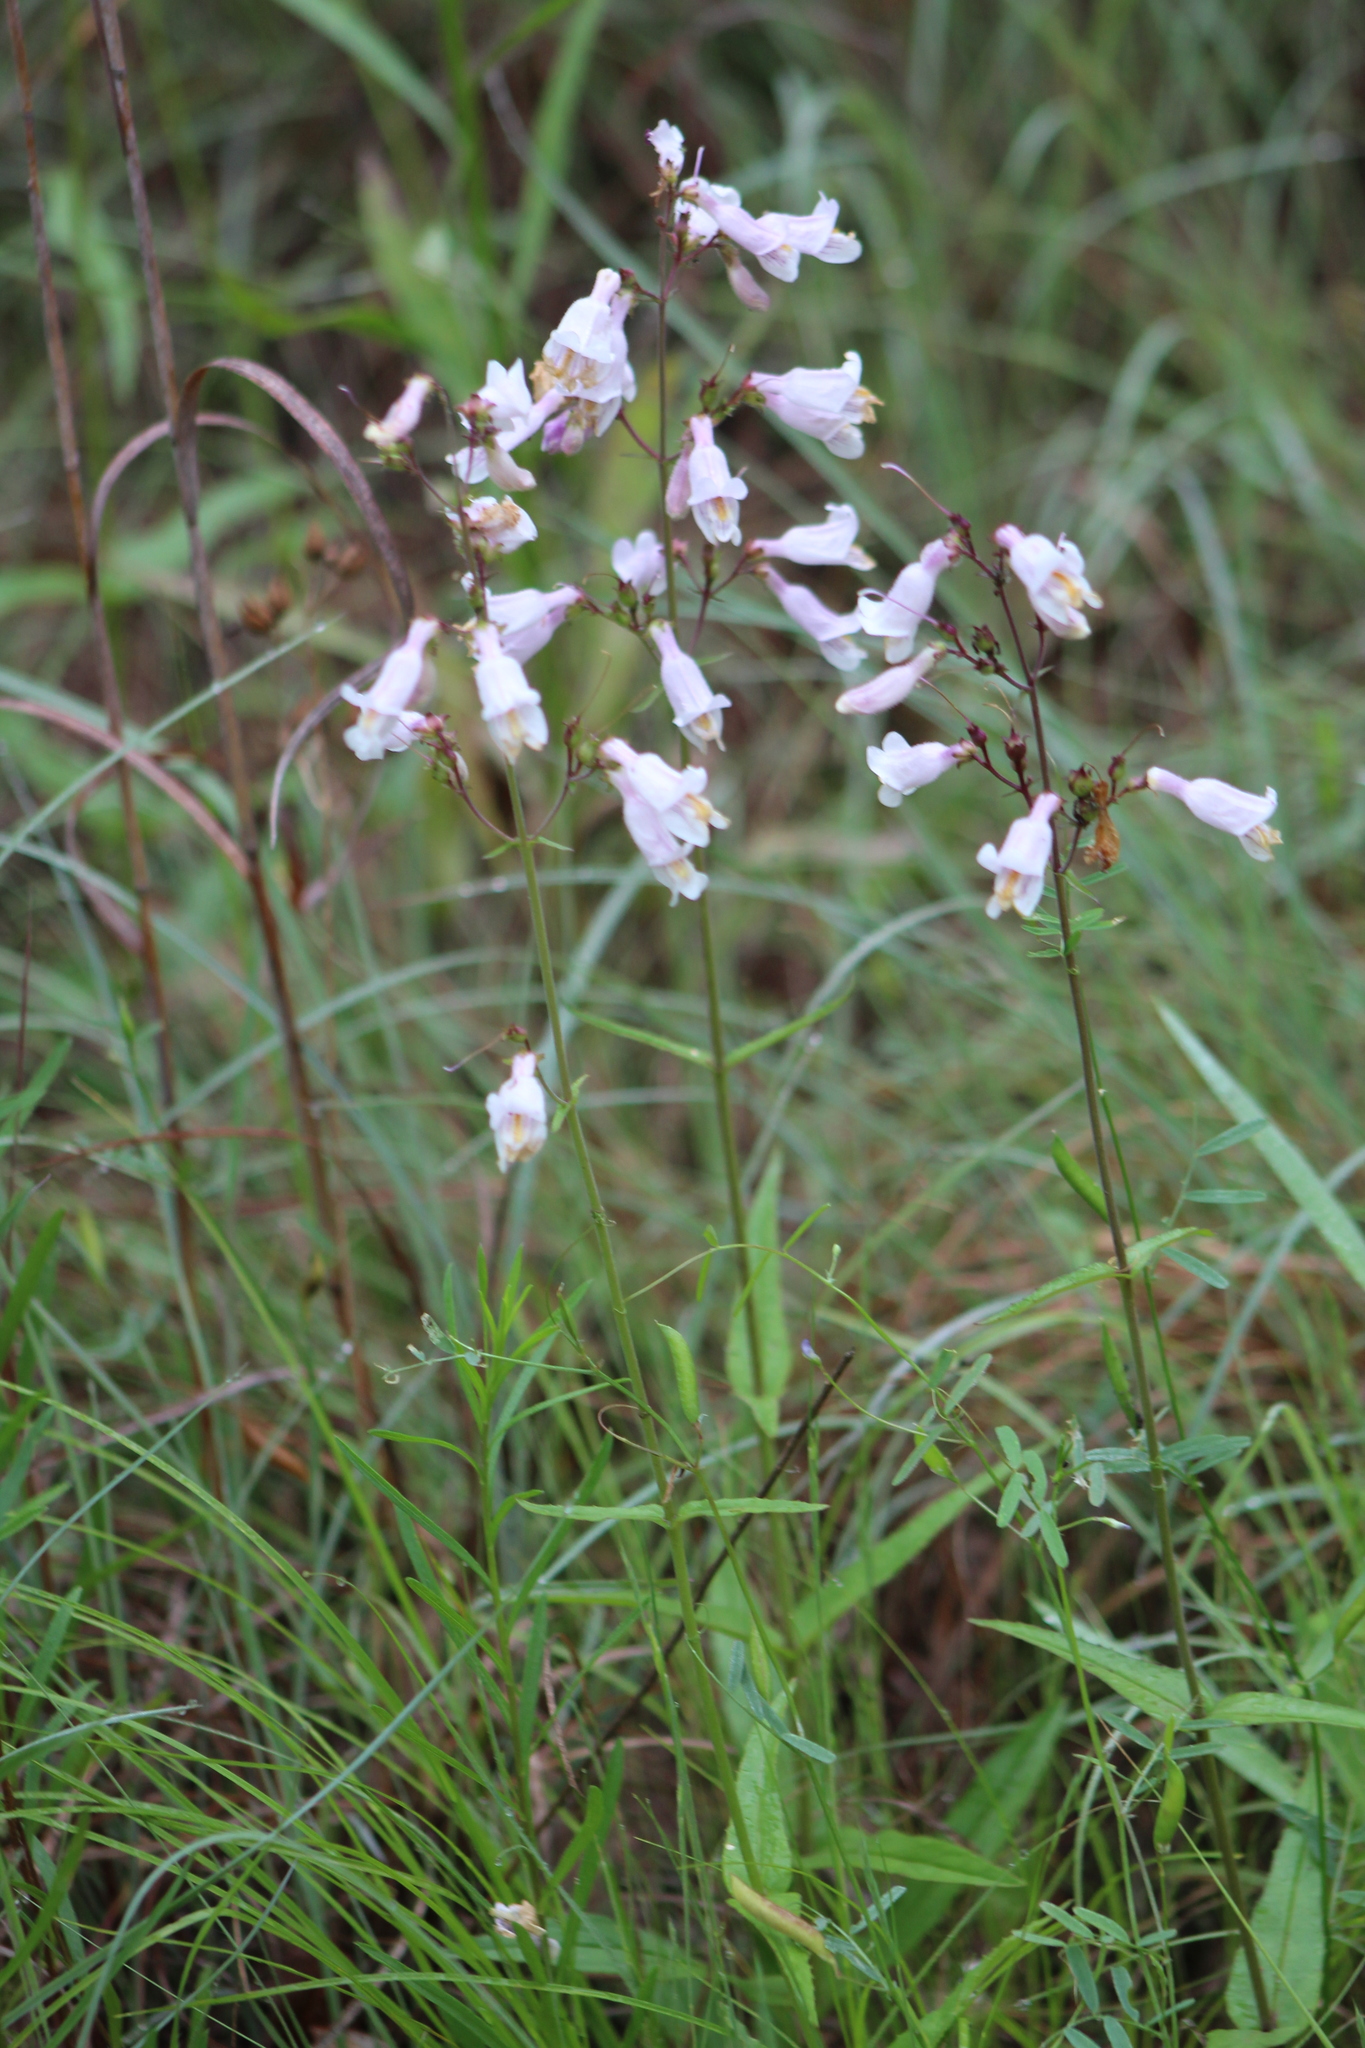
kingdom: Plantae
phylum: Tracheophyta
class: Magnoliopsida
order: Lamiales
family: Plantaginaceae
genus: Penstemon
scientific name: Penstemon laxiflorus
